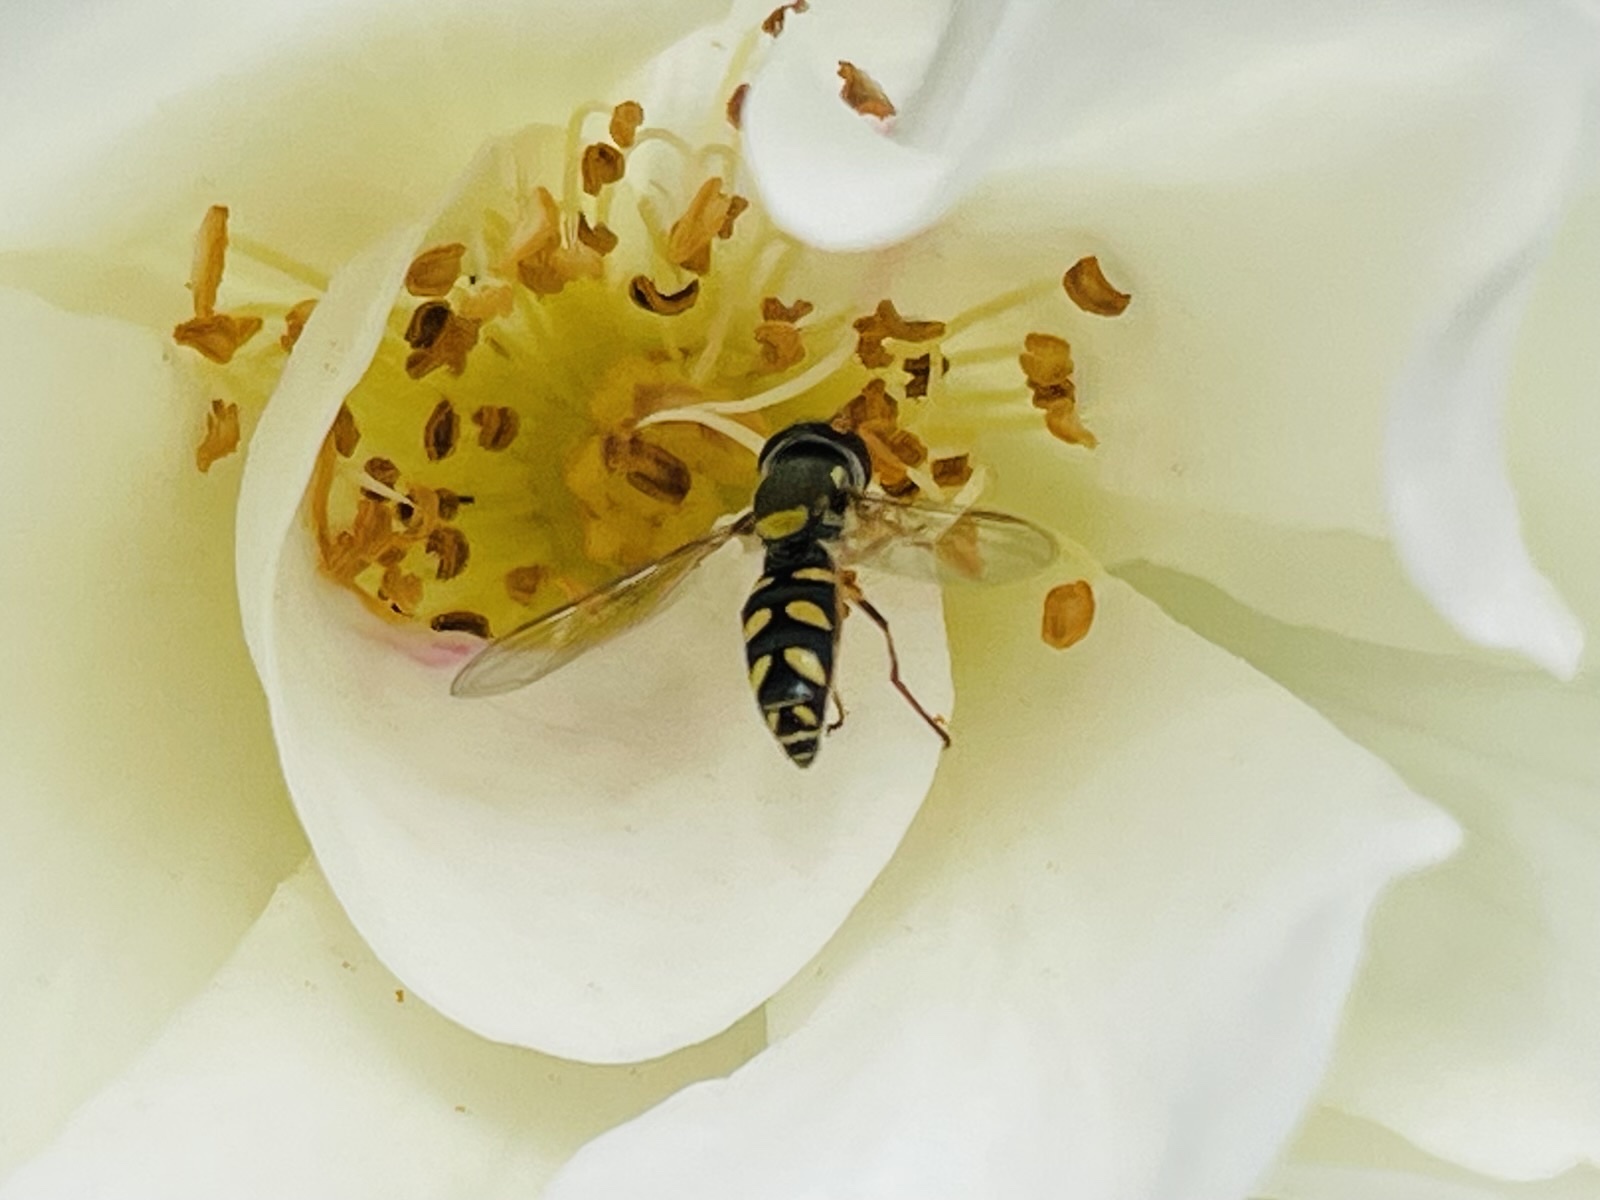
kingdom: Animalia
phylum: Arthropoda
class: Insecta
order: Diptera
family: Syrphidae
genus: Allograpta
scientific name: Allograpta hortensis
